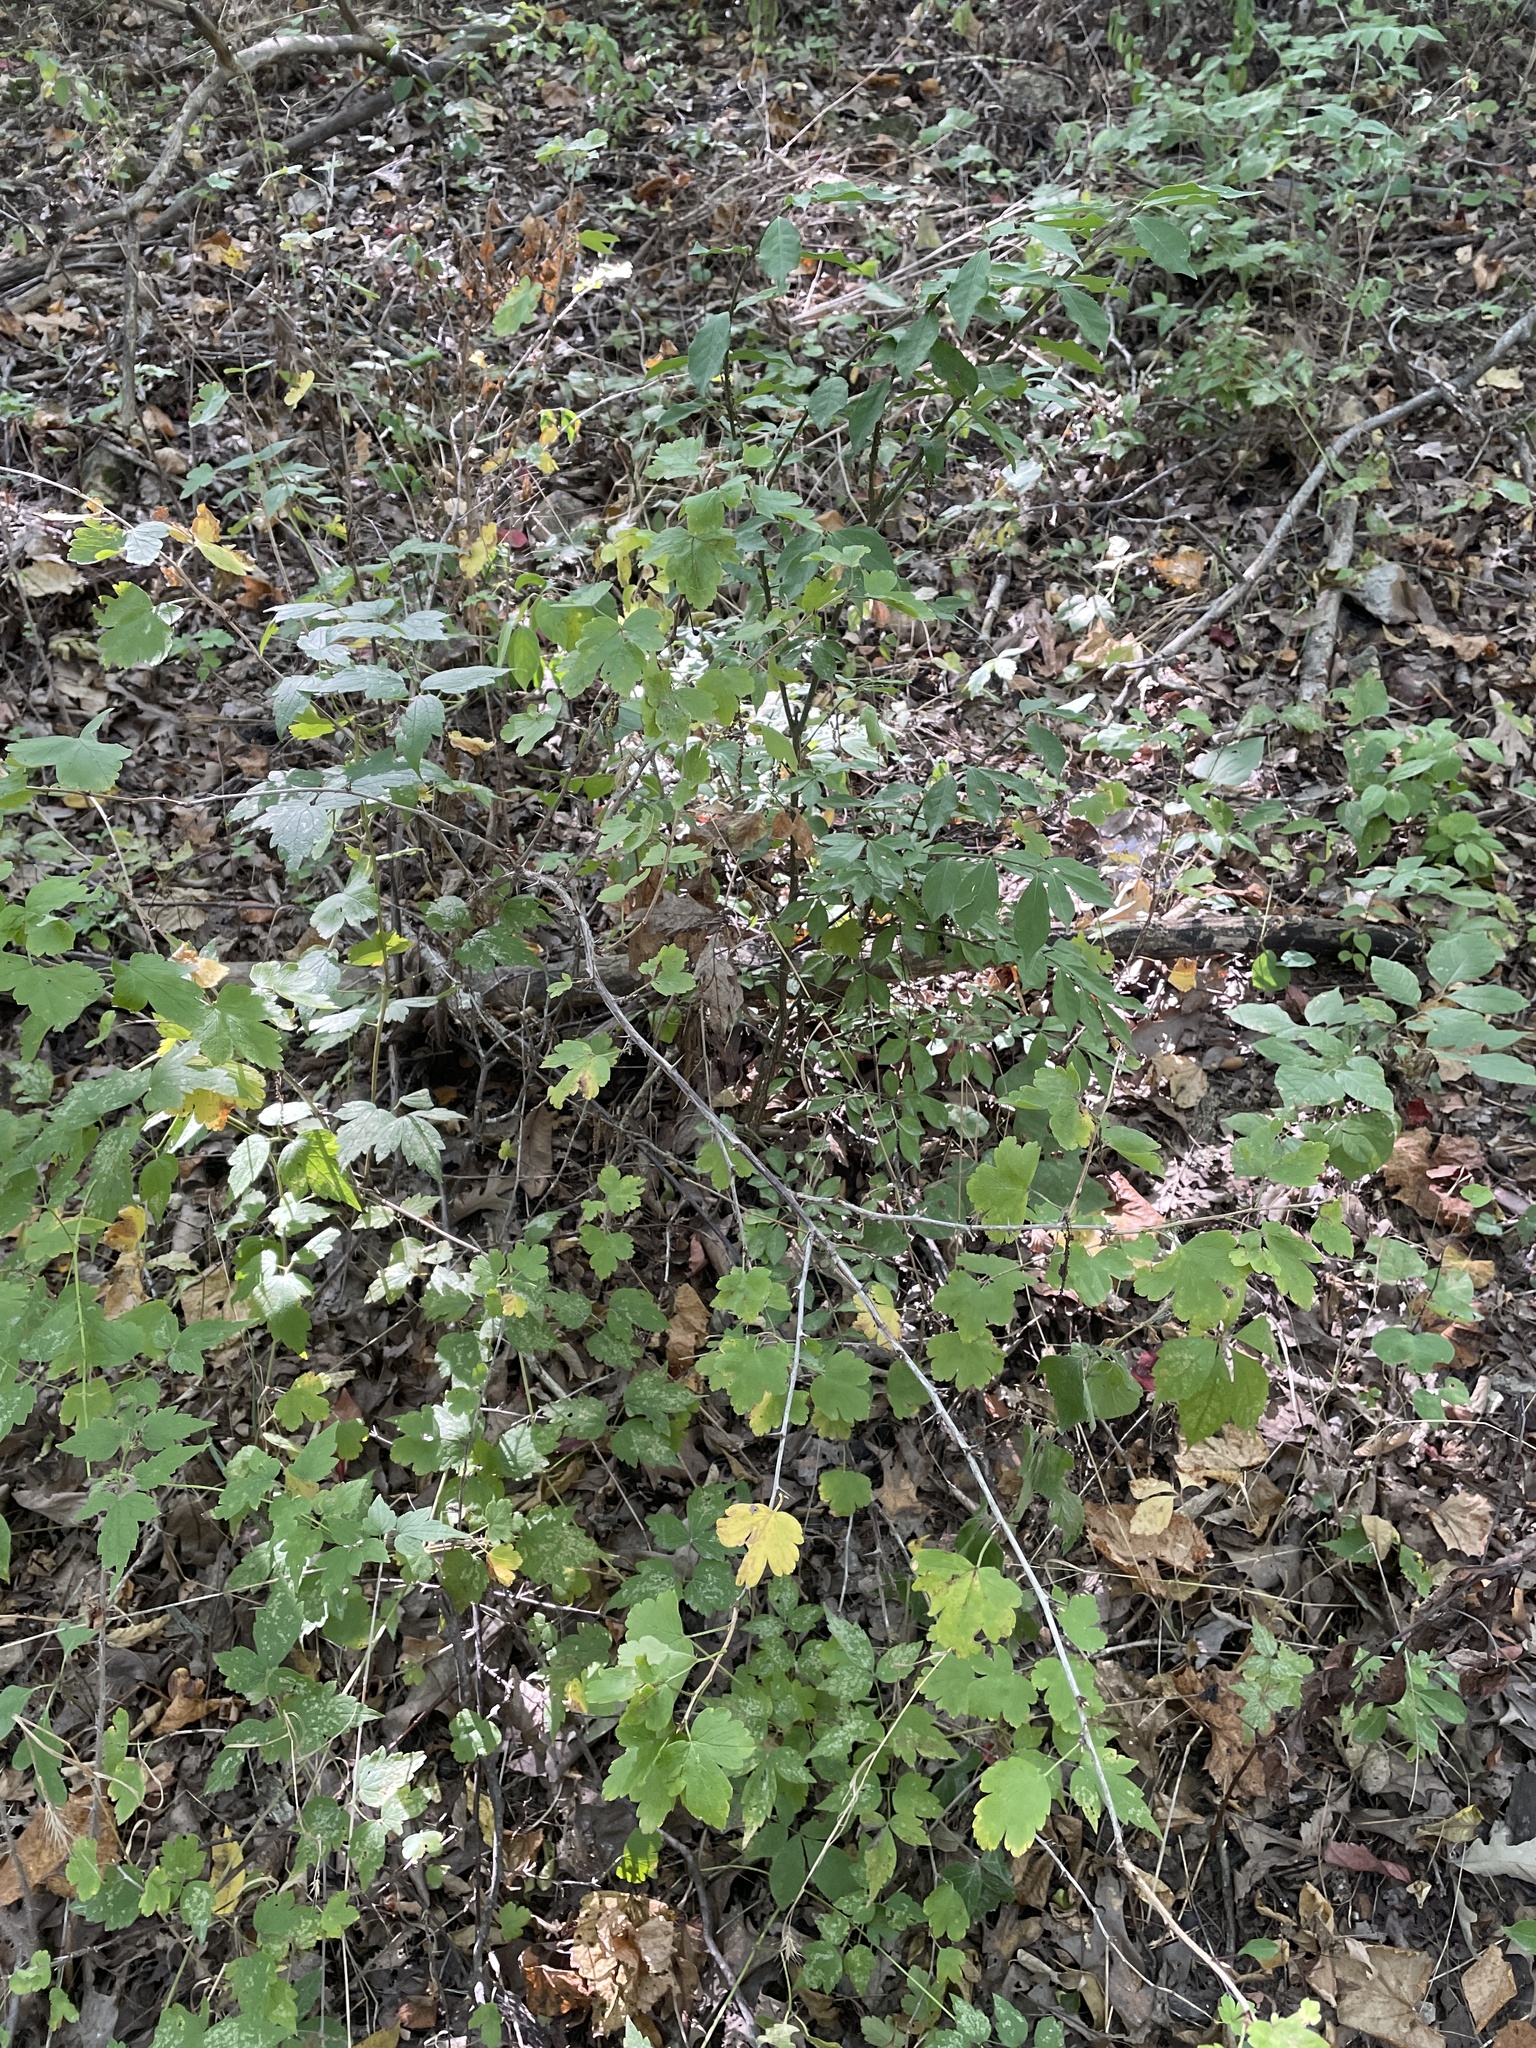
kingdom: Plantae
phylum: Tracheophyta
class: Magnoliopsida
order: Saxifragales
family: Grossulariaceae
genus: Ribes
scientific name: Ribes missouriense
